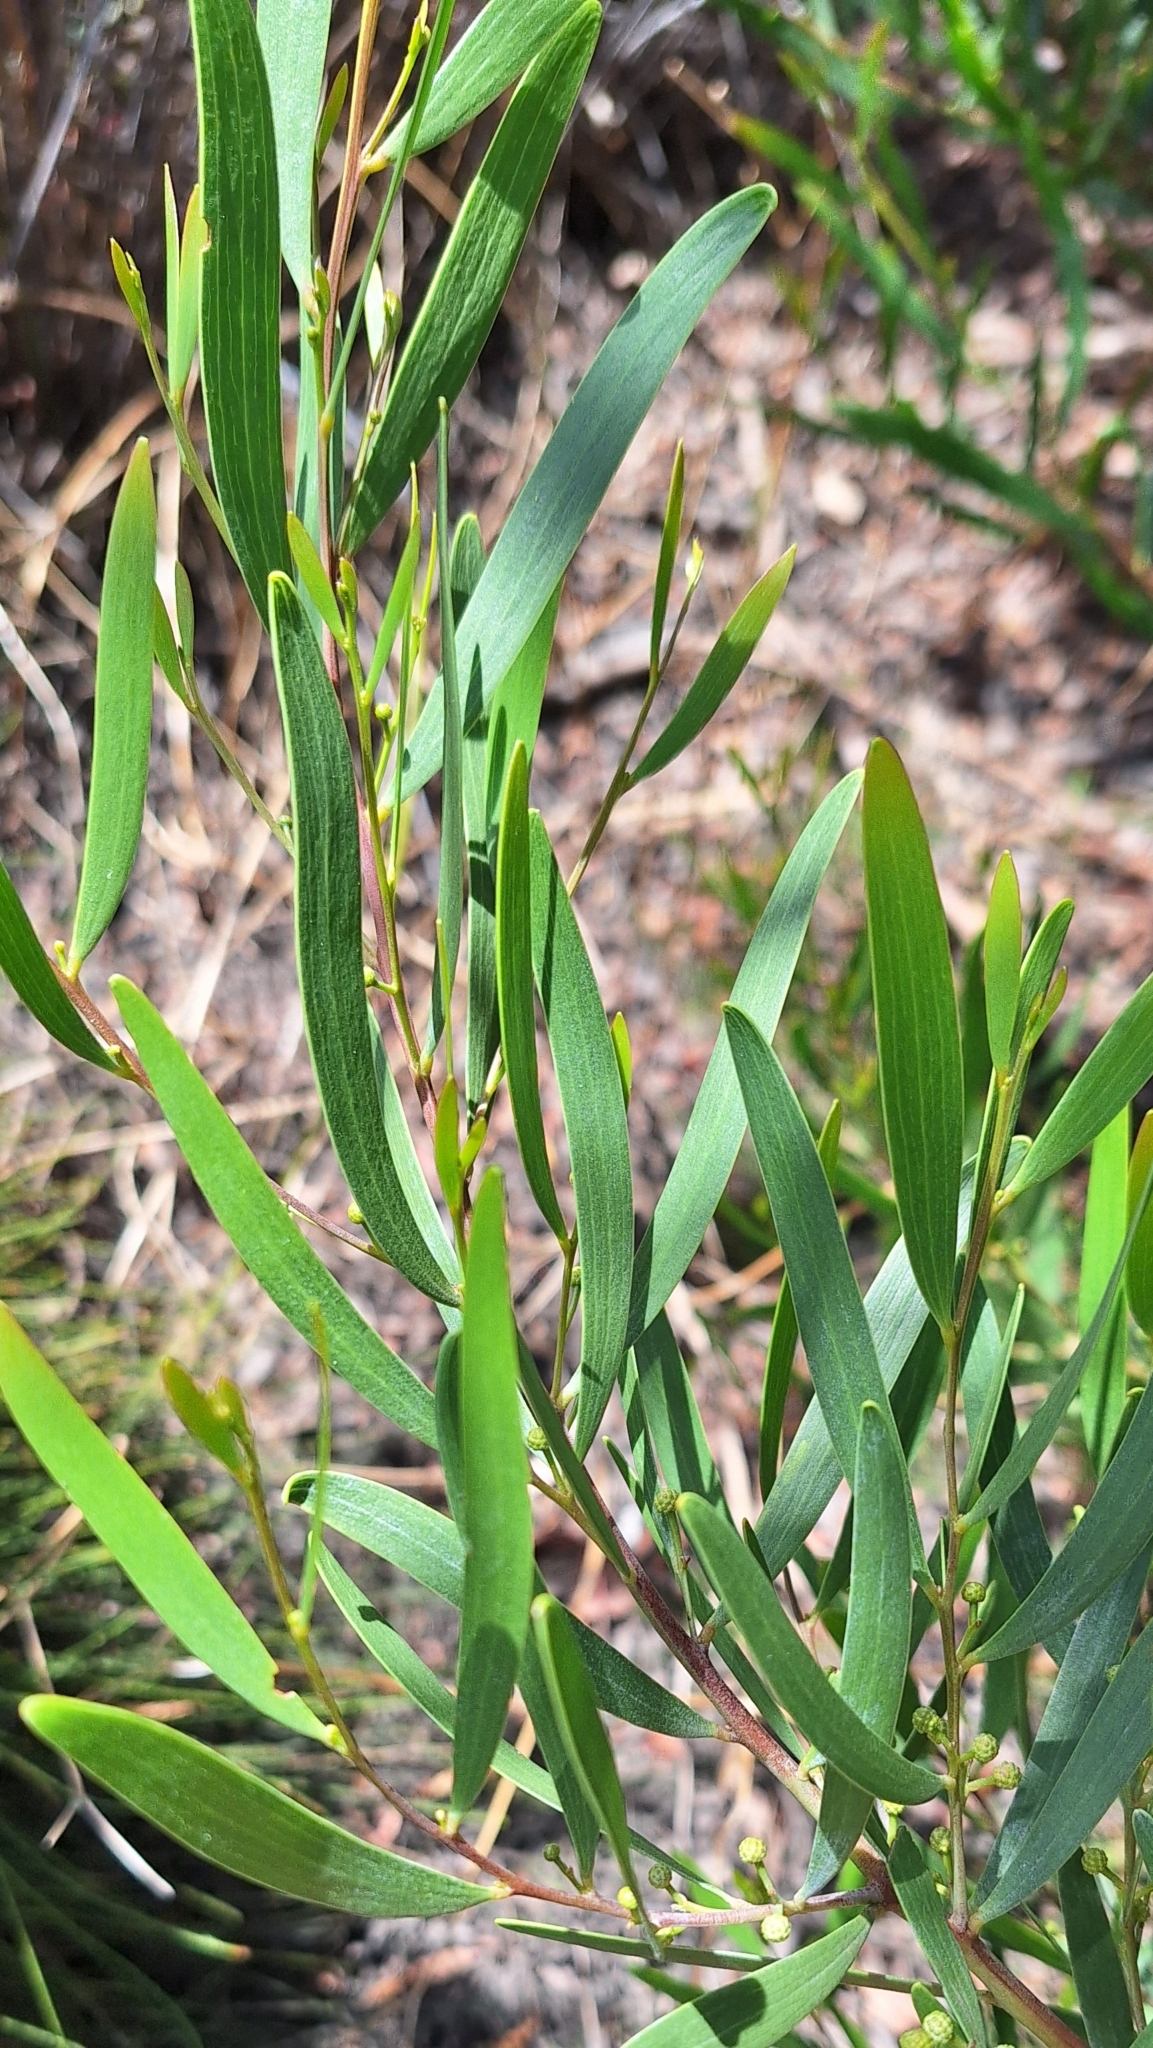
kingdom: Plantae
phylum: Tracheophyta
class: Magnoliopsida
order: Fabales
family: Fabaceae
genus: Acacia
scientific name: Acacia cyclops
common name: Coastal wattle
